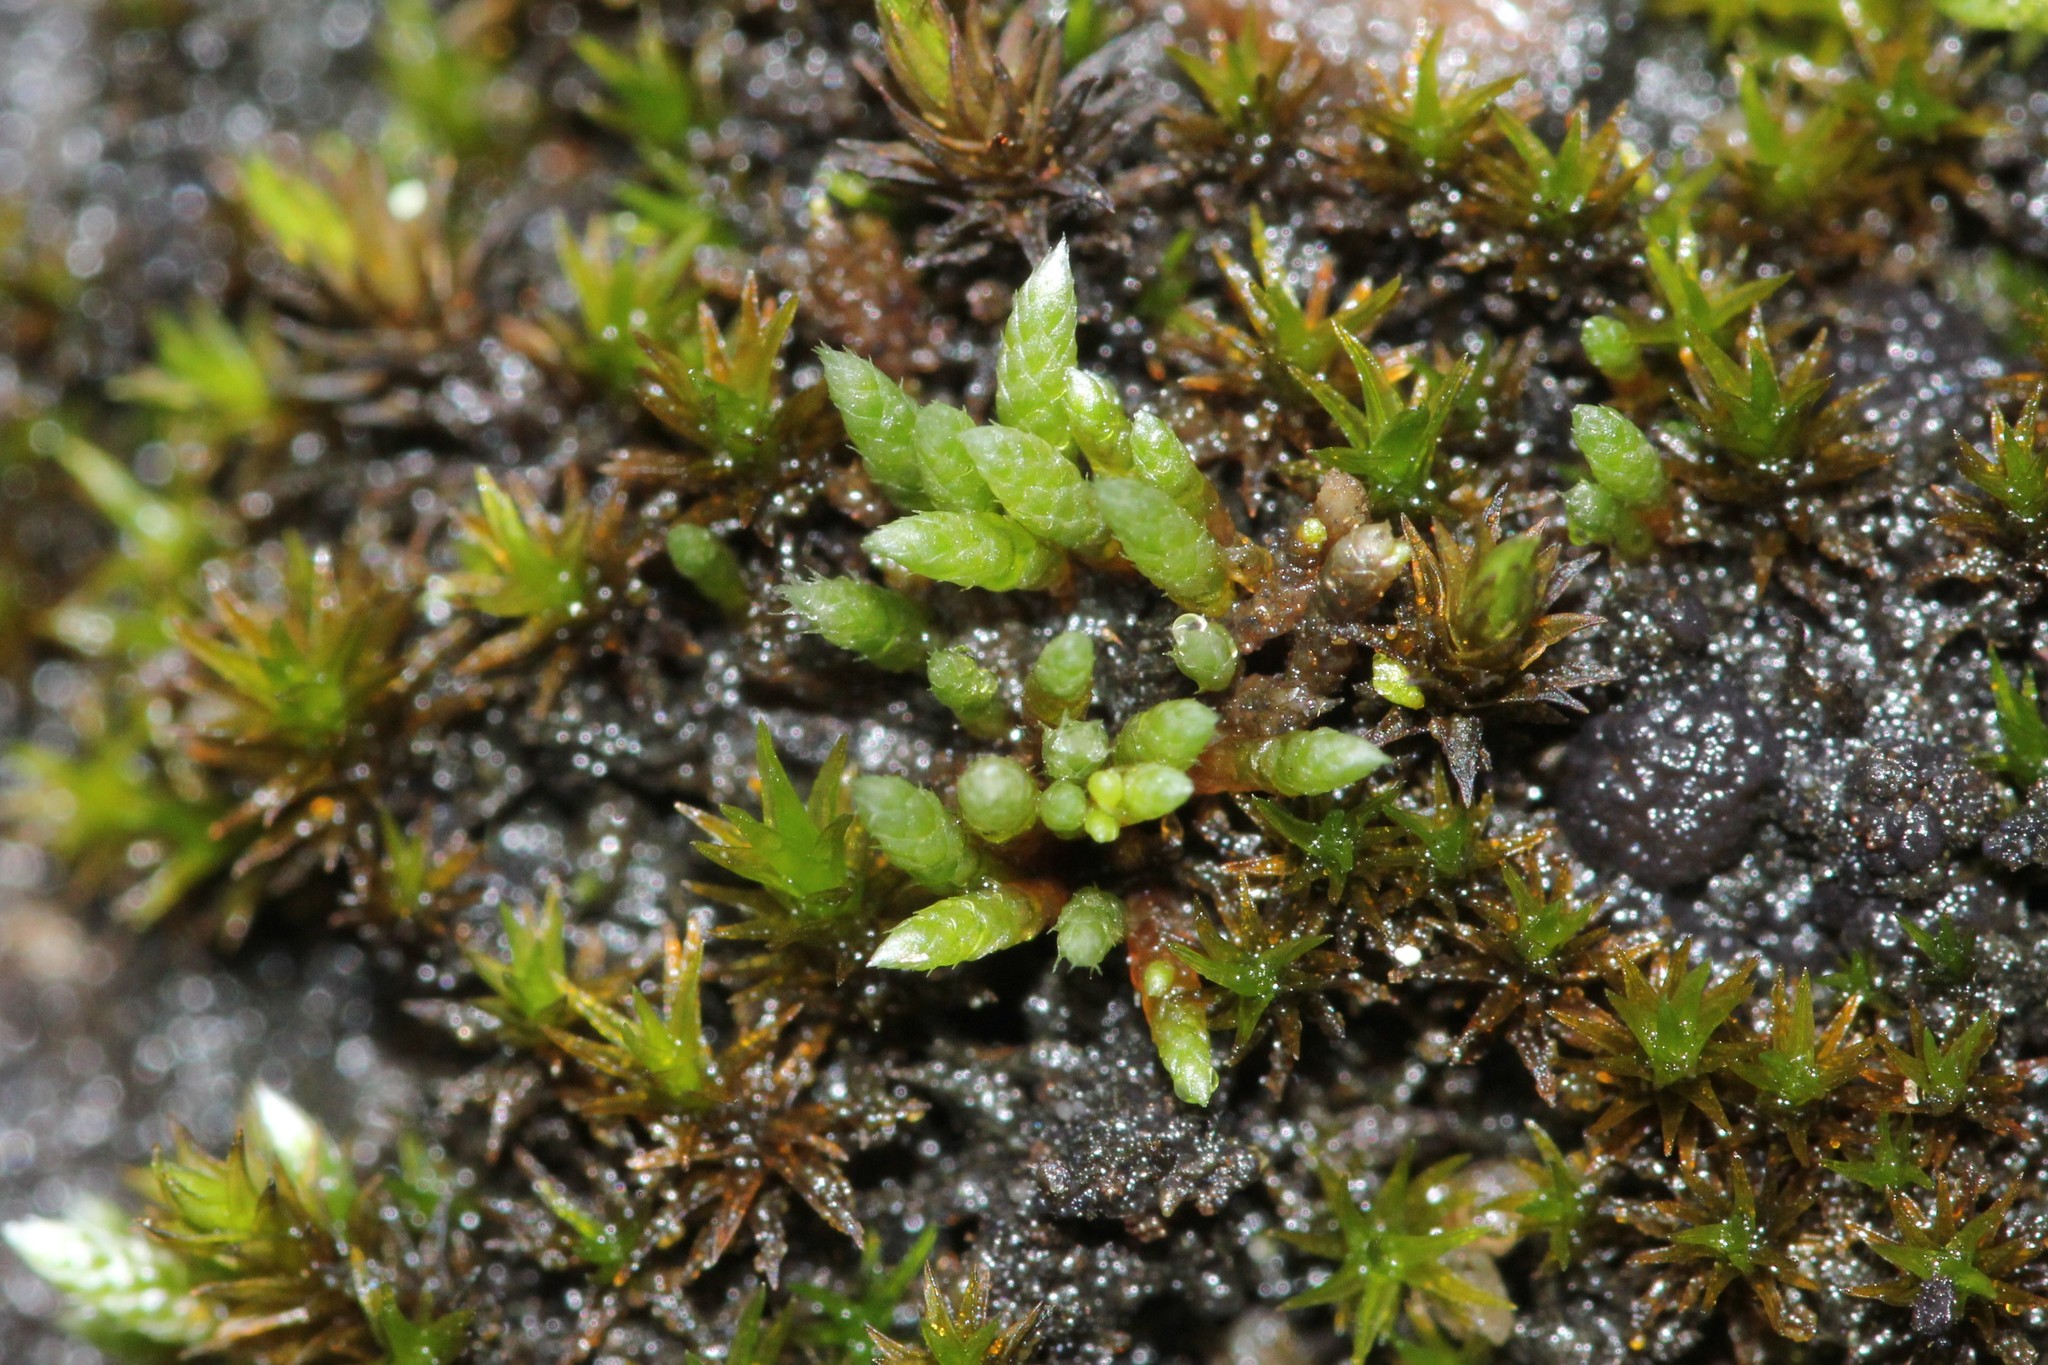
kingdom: Plantae
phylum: Bryophyta
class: Bryopsida
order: Bryales
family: Bryaceae
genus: Bryum
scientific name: Bryum argenteum
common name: Silver-moss
